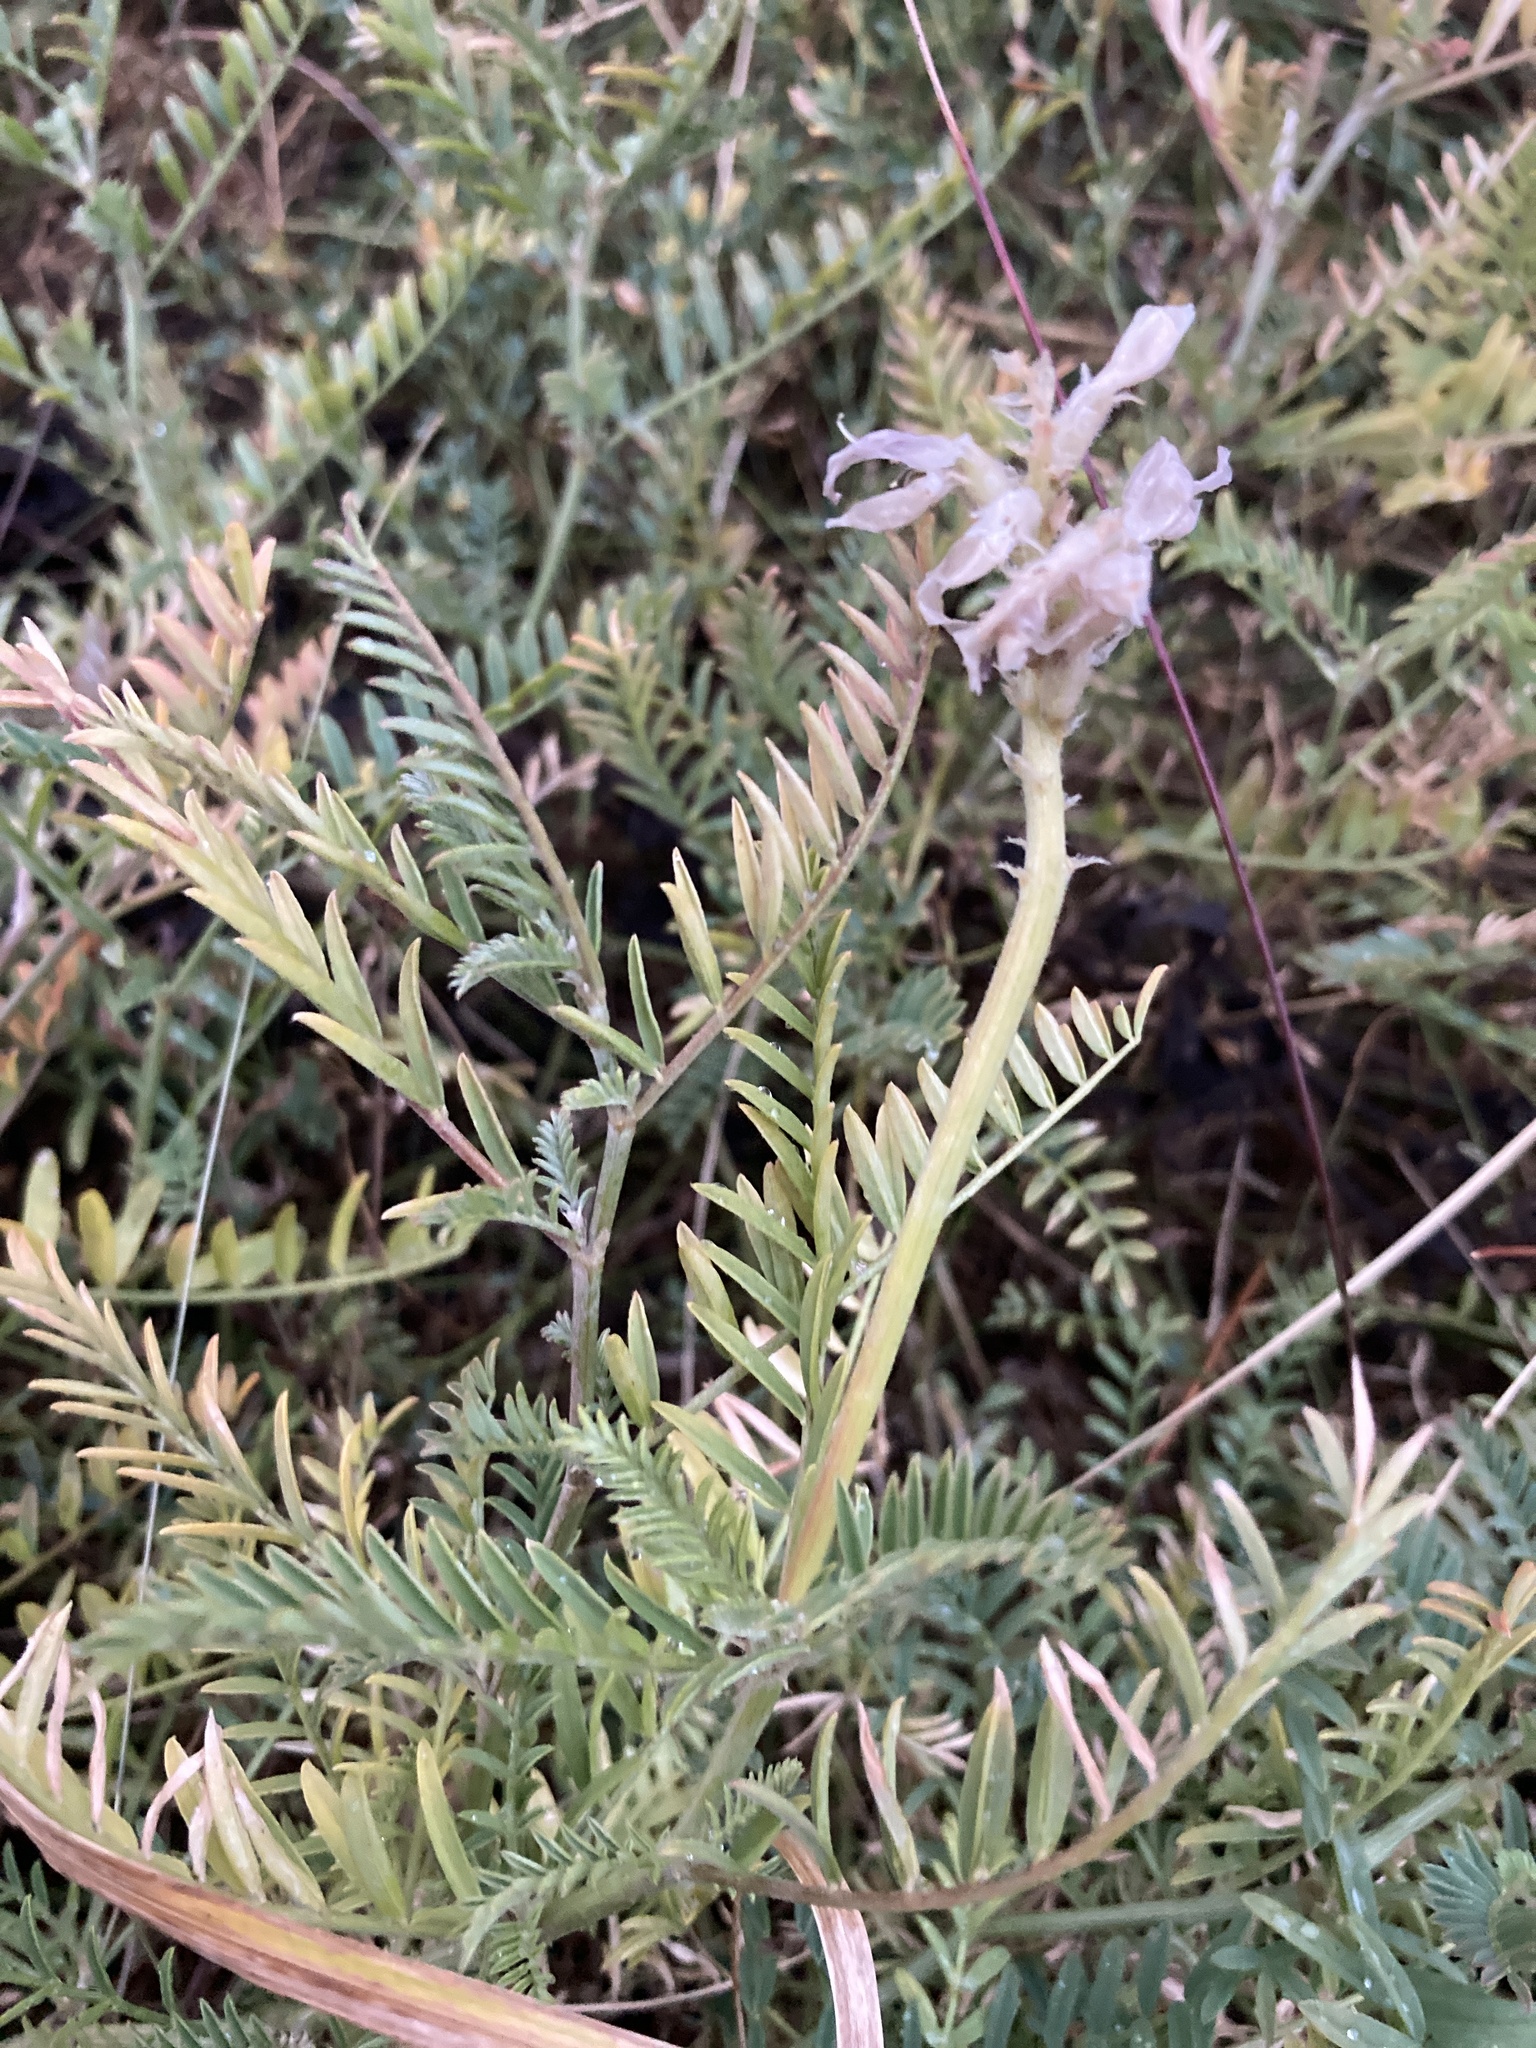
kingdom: Plantae
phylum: Tracheophyta
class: Magnoliopsida
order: Fabales
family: Fabaceae
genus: Astragalus
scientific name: Astragalus onobrychis
